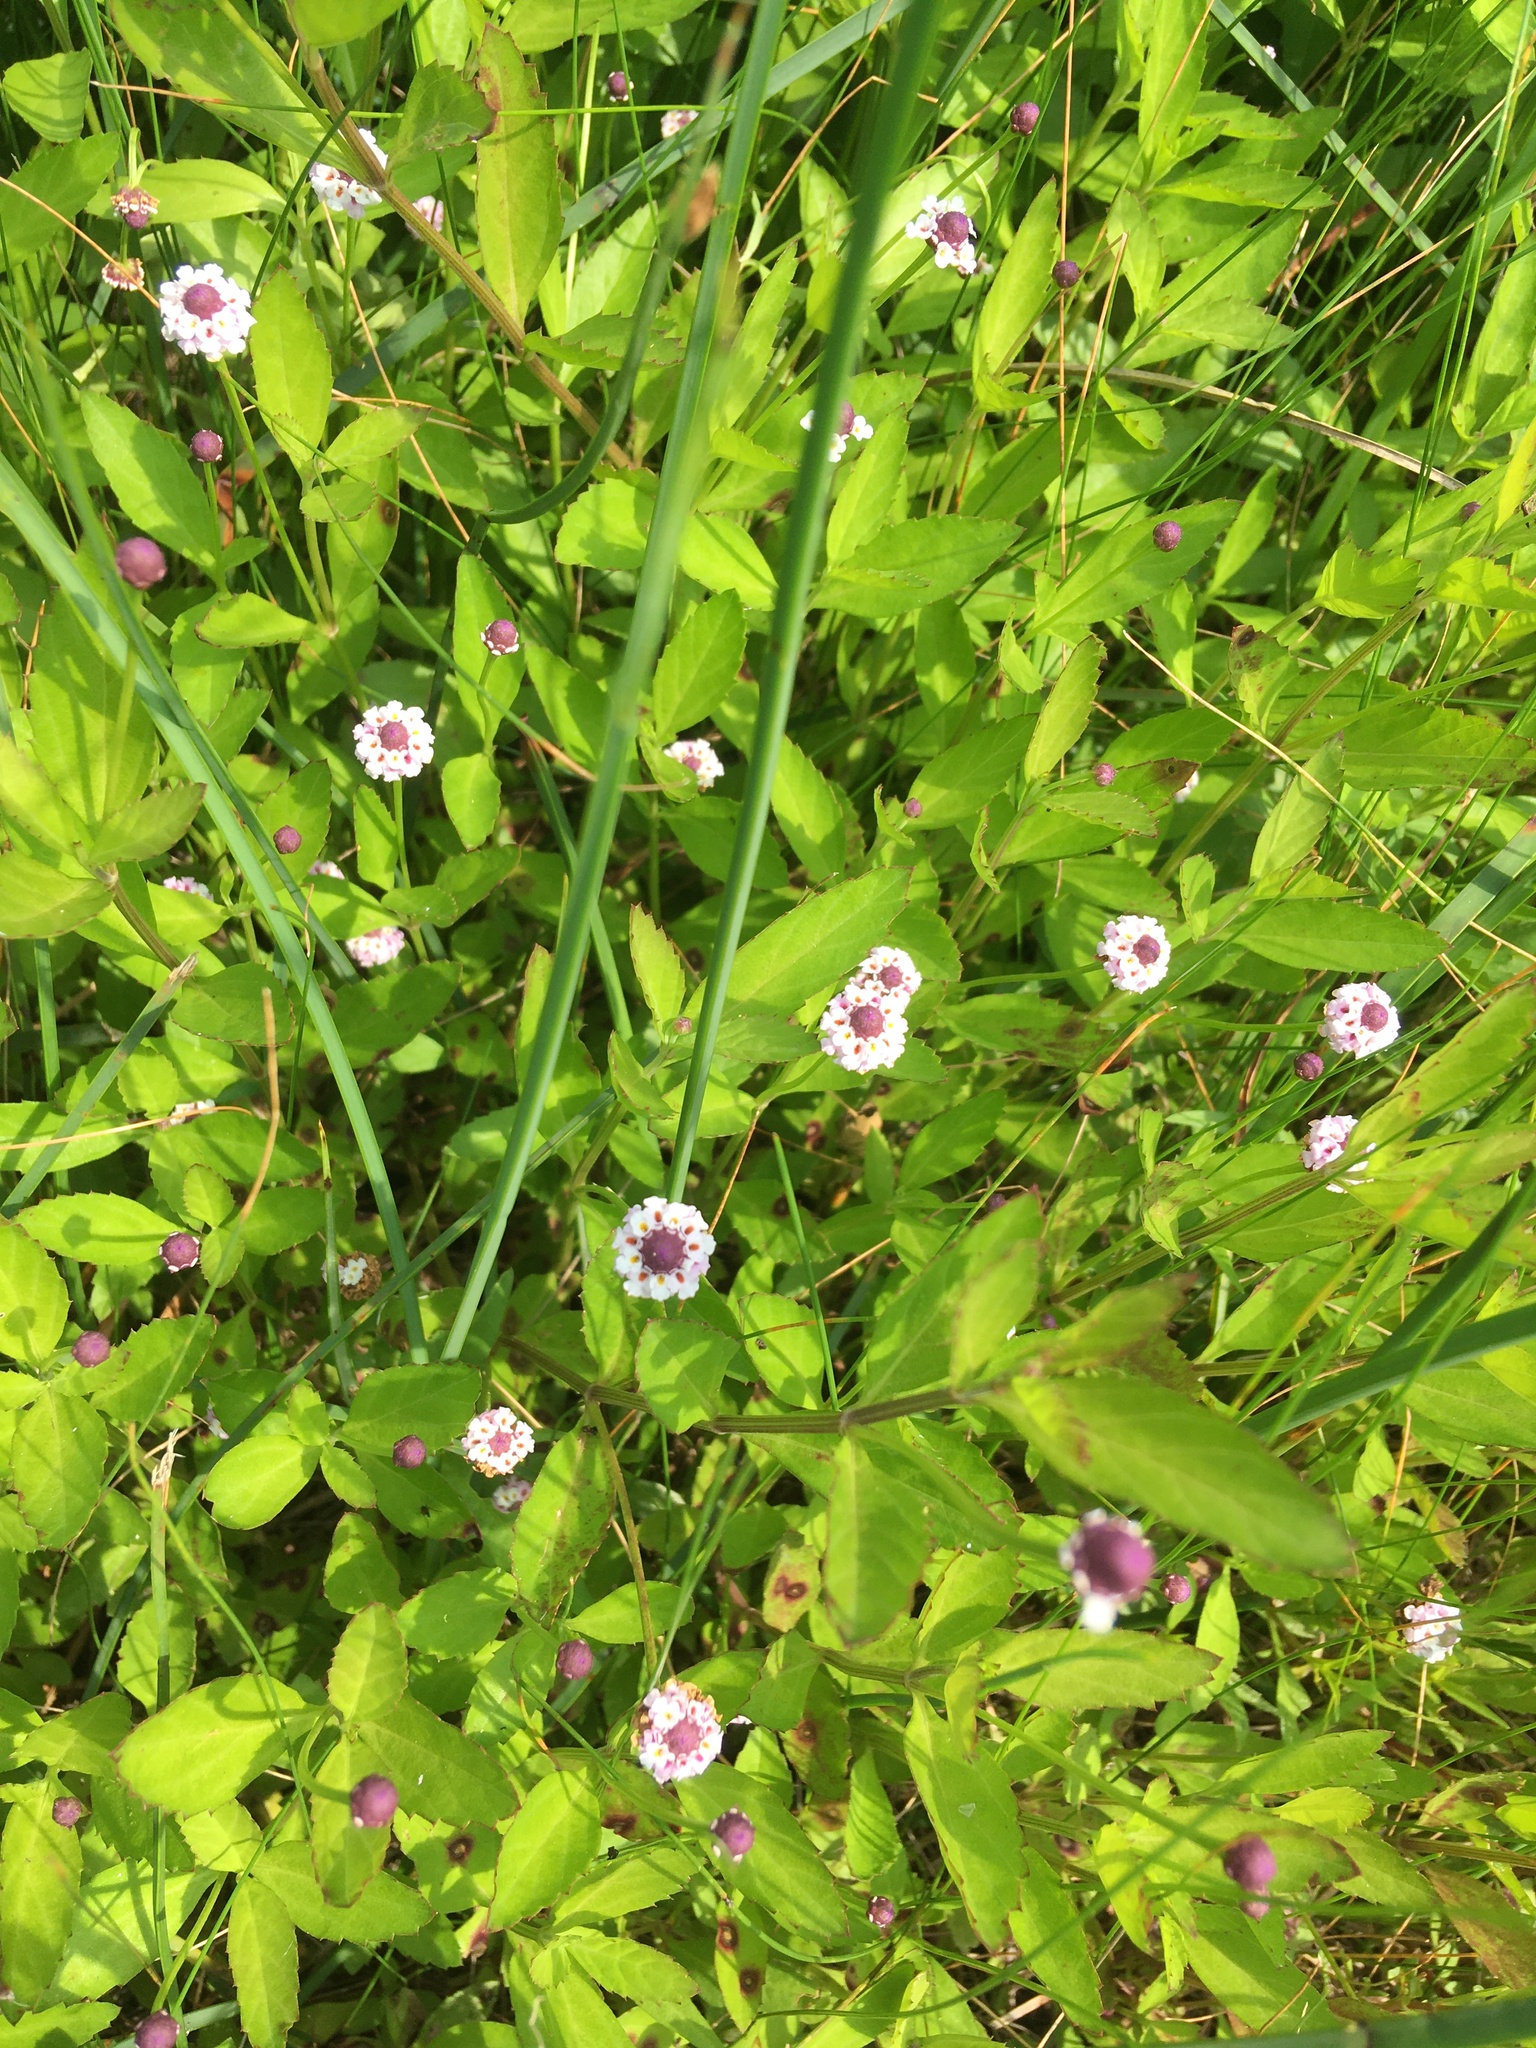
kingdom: Plantae
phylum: Tracheophyta
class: Magnoliopsida
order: Lamiales
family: Verbenaceae
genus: Phyla
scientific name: Phyla lanceolata
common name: Northern fogfruit
